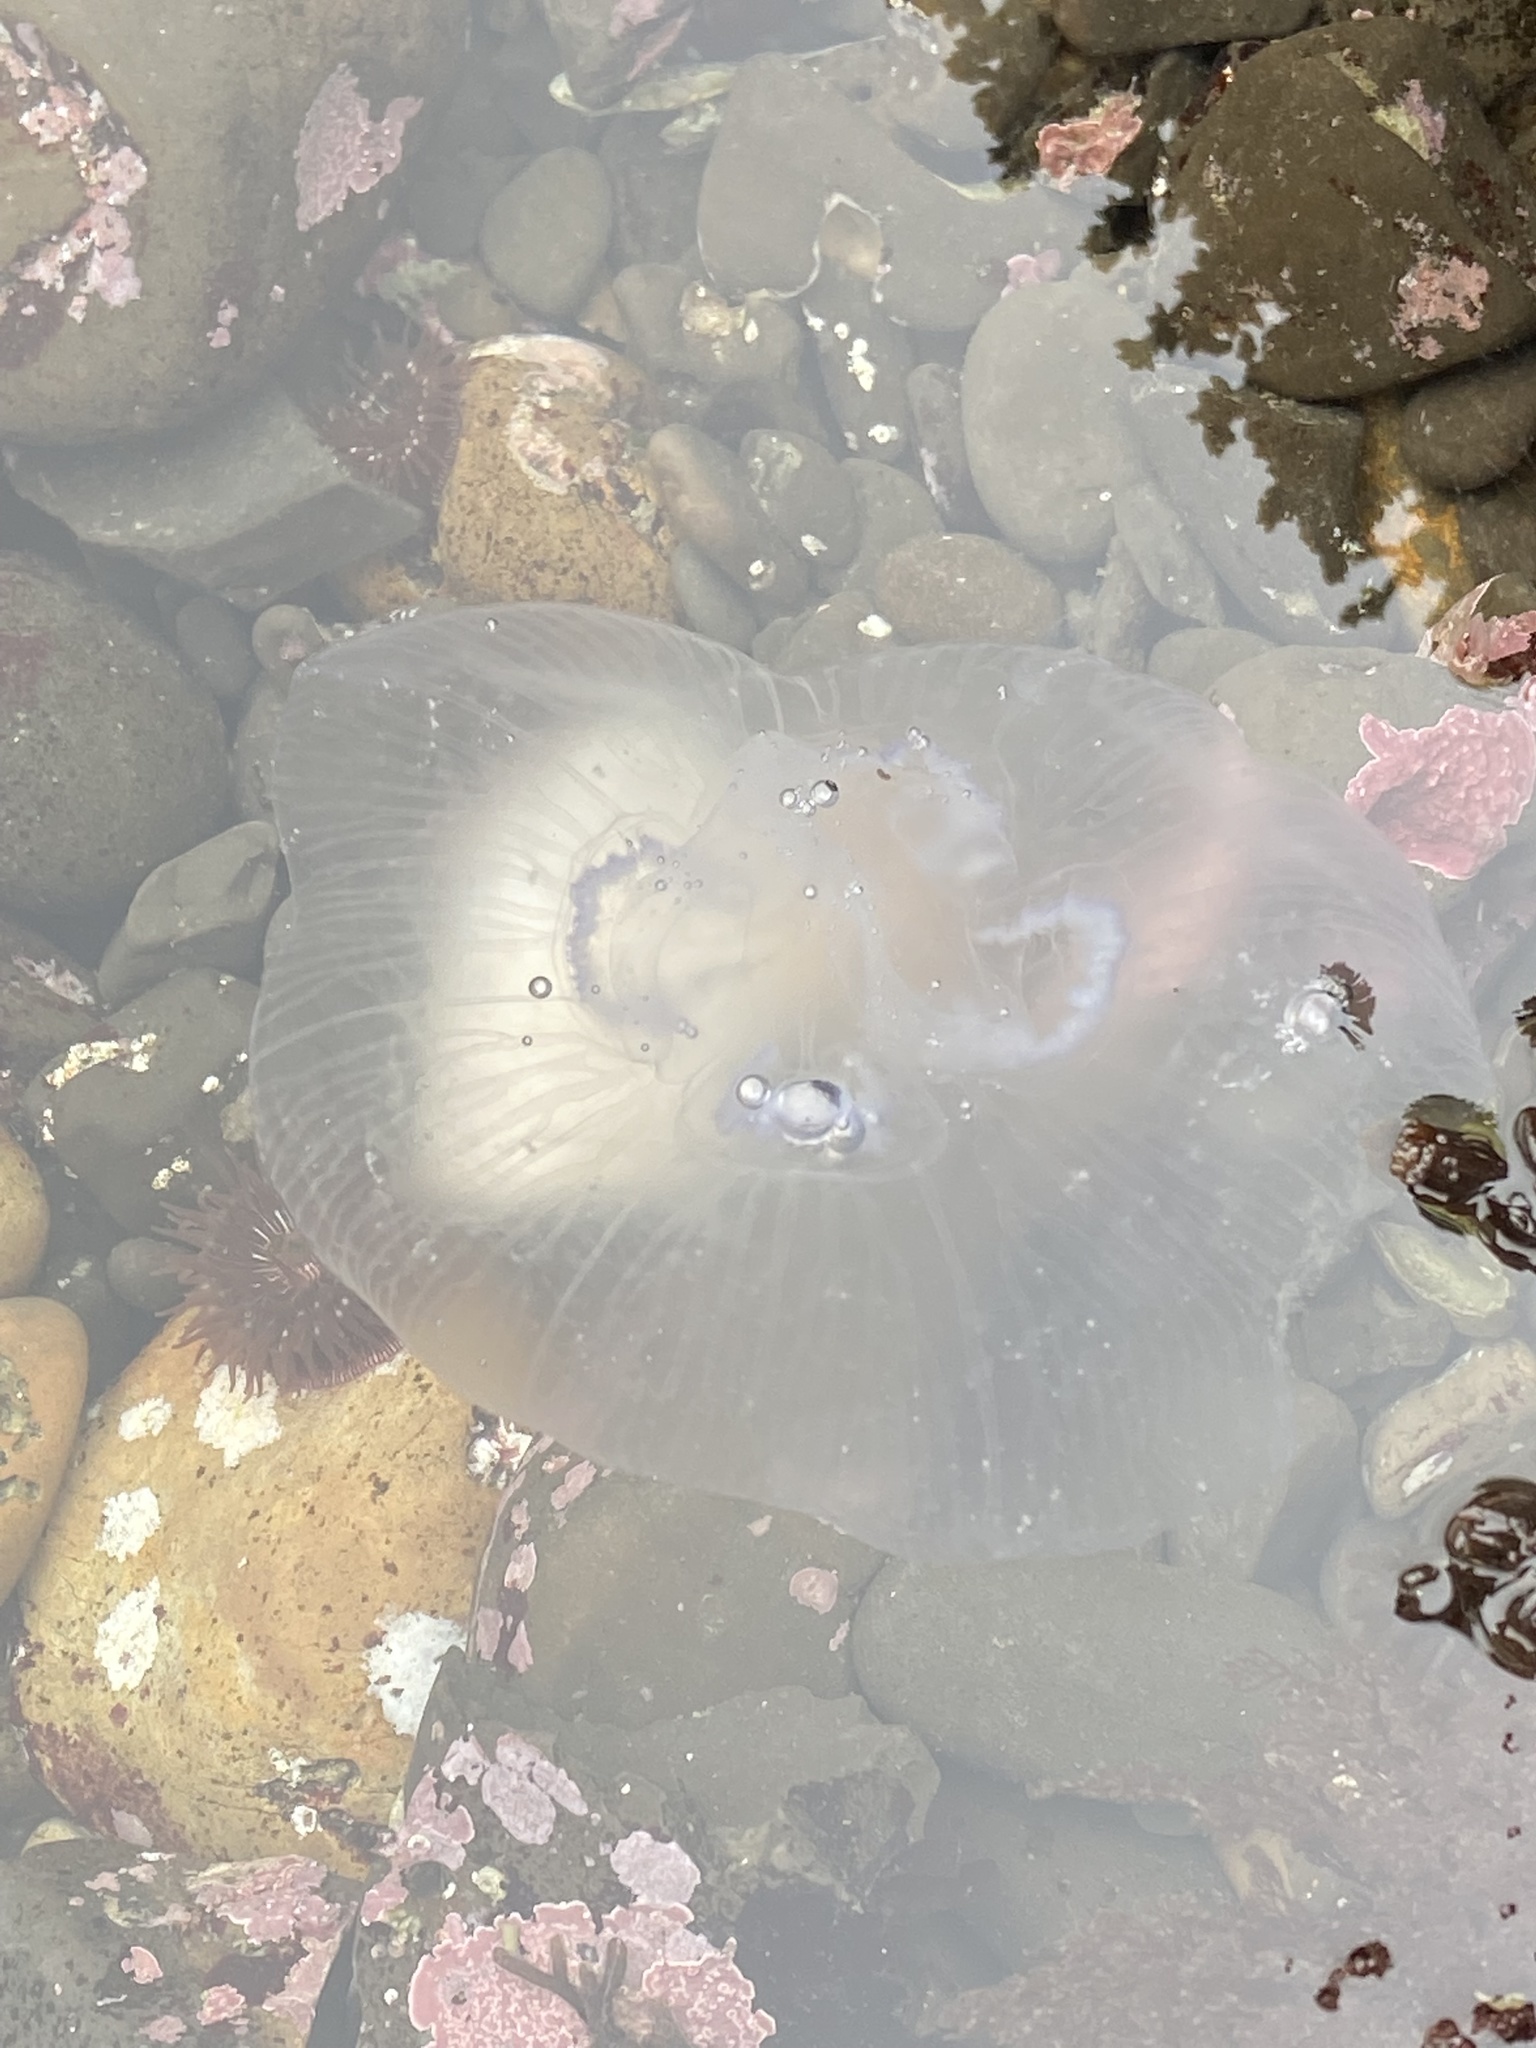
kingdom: Animalia
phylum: Cnidaria
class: Scyphozoa
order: Semaeostomeae
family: Ulmaridae
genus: Aurelia
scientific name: Aurelia labiata
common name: Pacific moon jelly
